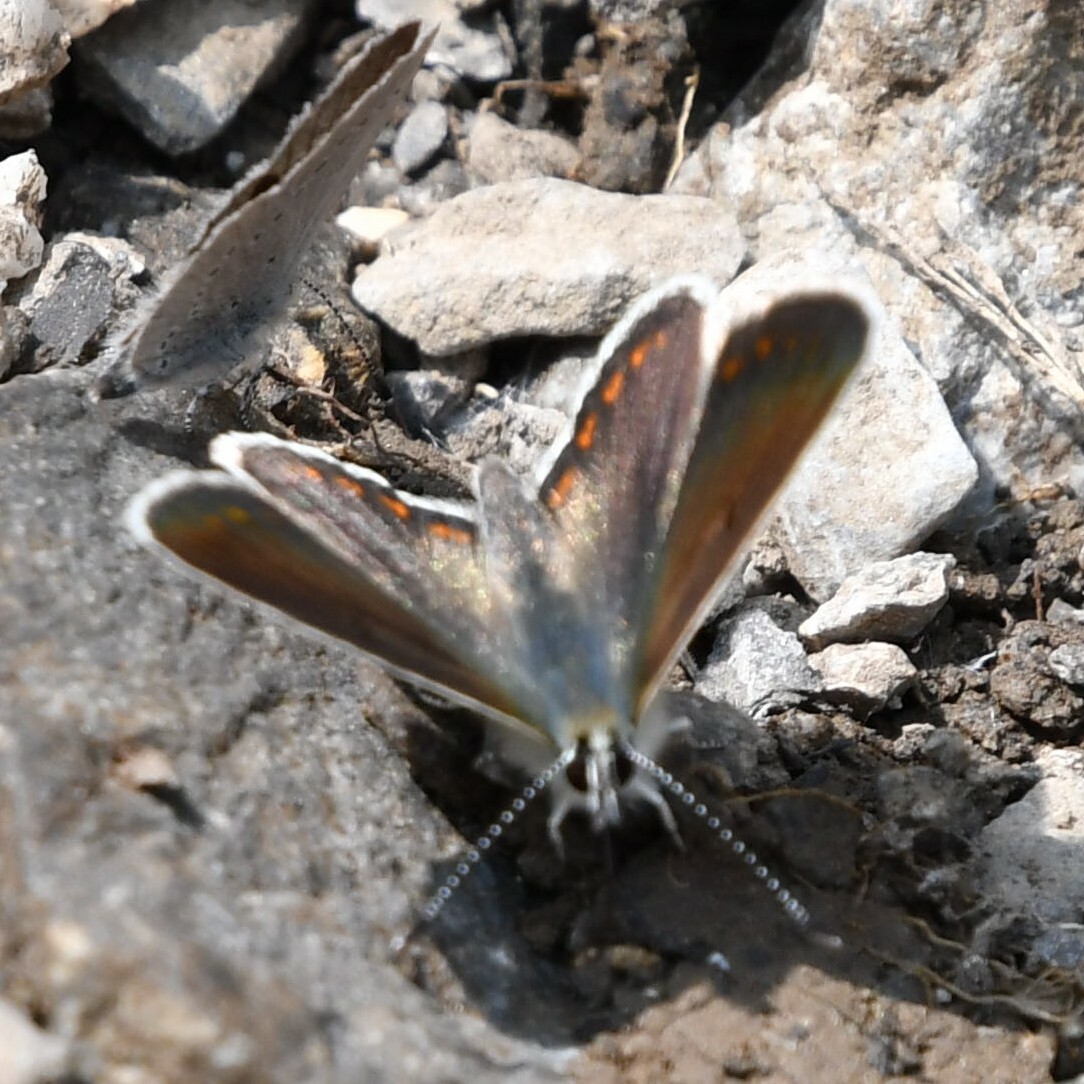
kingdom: Animalia
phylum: Arthropoda
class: Insecta
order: Lepidoptera
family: Lycaenidae
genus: Aricia
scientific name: Aricia artaxerxes
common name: Northern brown argus
